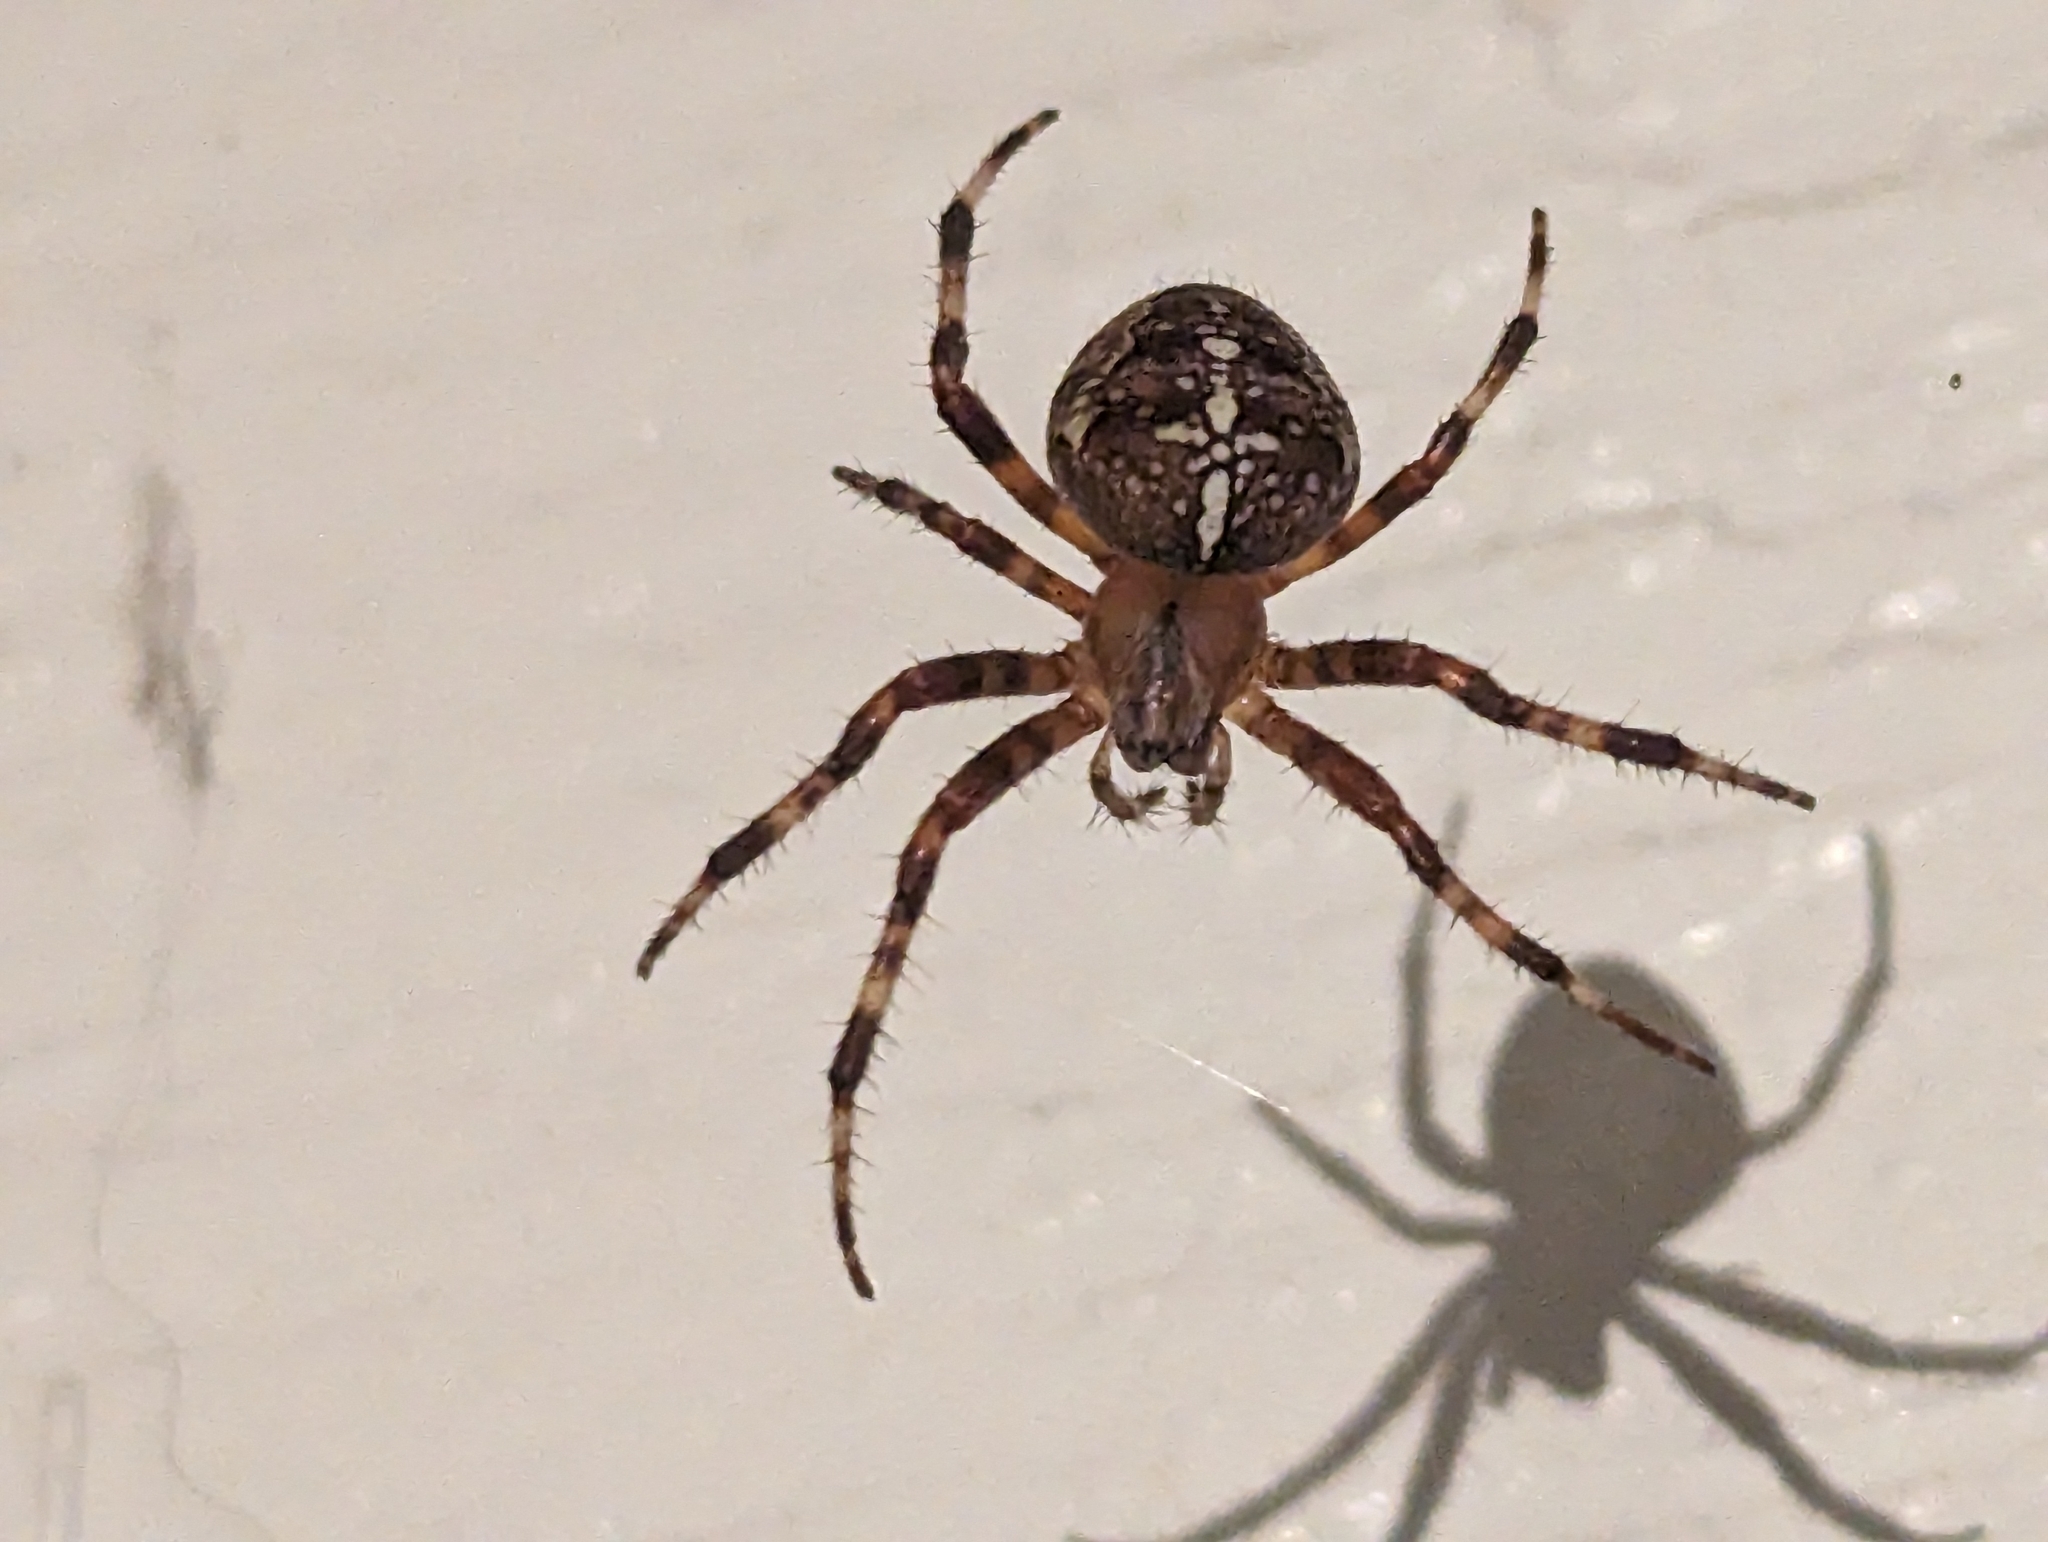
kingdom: Animalia
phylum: Arthropoda
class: Arachnida
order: Araneae
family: Araneidae
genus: Araneus
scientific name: Araneus diadematus
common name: Cross orbweaver
